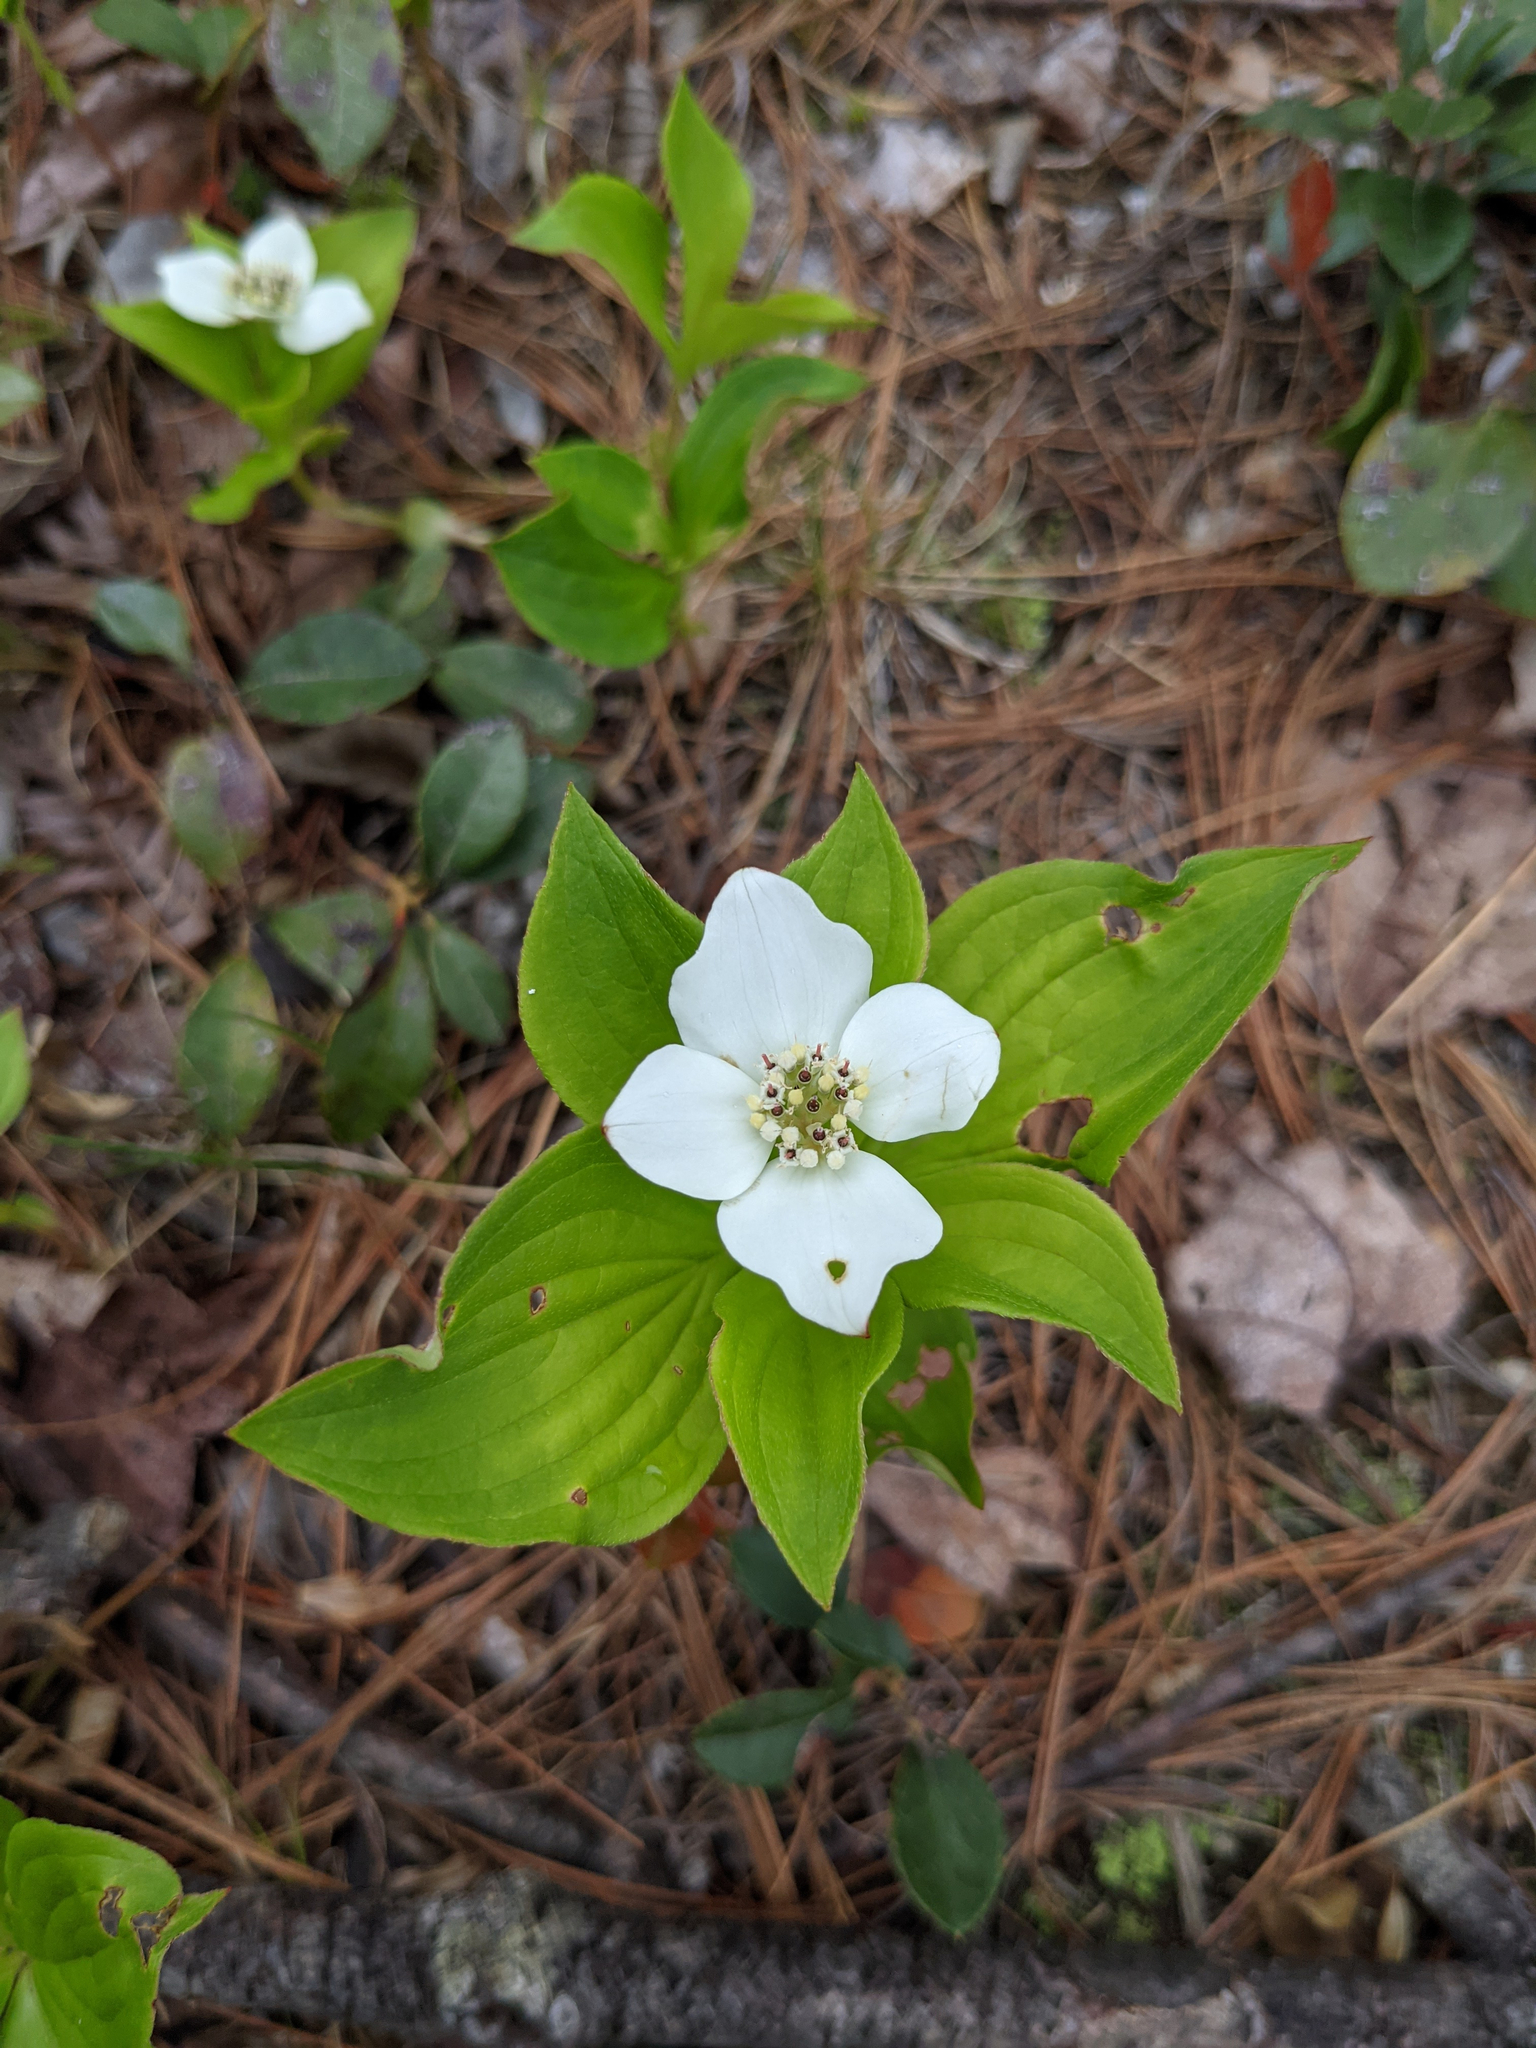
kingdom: Plantae
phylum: Tracheophyta
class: Magnoliopsida
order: Cornales
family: Cornaceae
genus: Cornus
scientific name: Cornus canadensis
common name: Creeping dogwood
